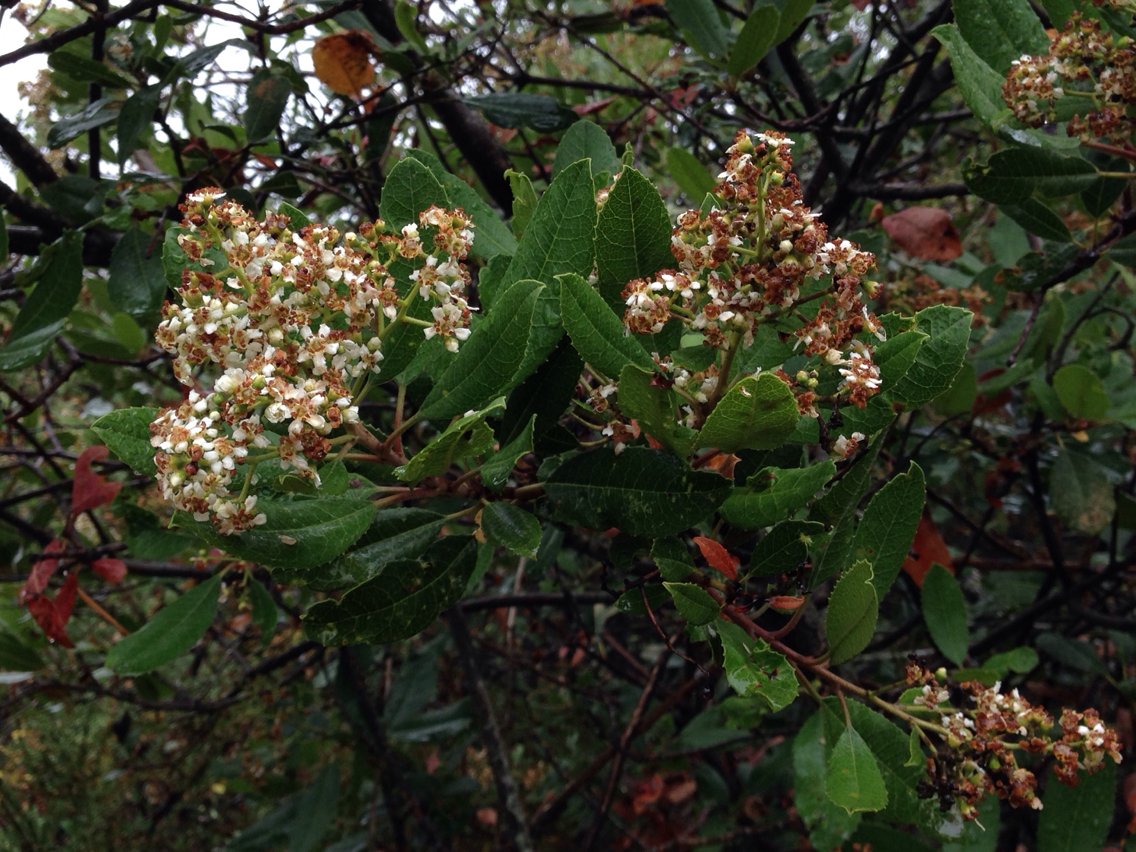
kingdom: Plantae
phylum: Tracheophyta
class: Magnoliopsida
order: Rosales
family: Rosaceae
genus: Heteromeles
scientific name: Heteromeles arbutifolia
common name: California-holly
